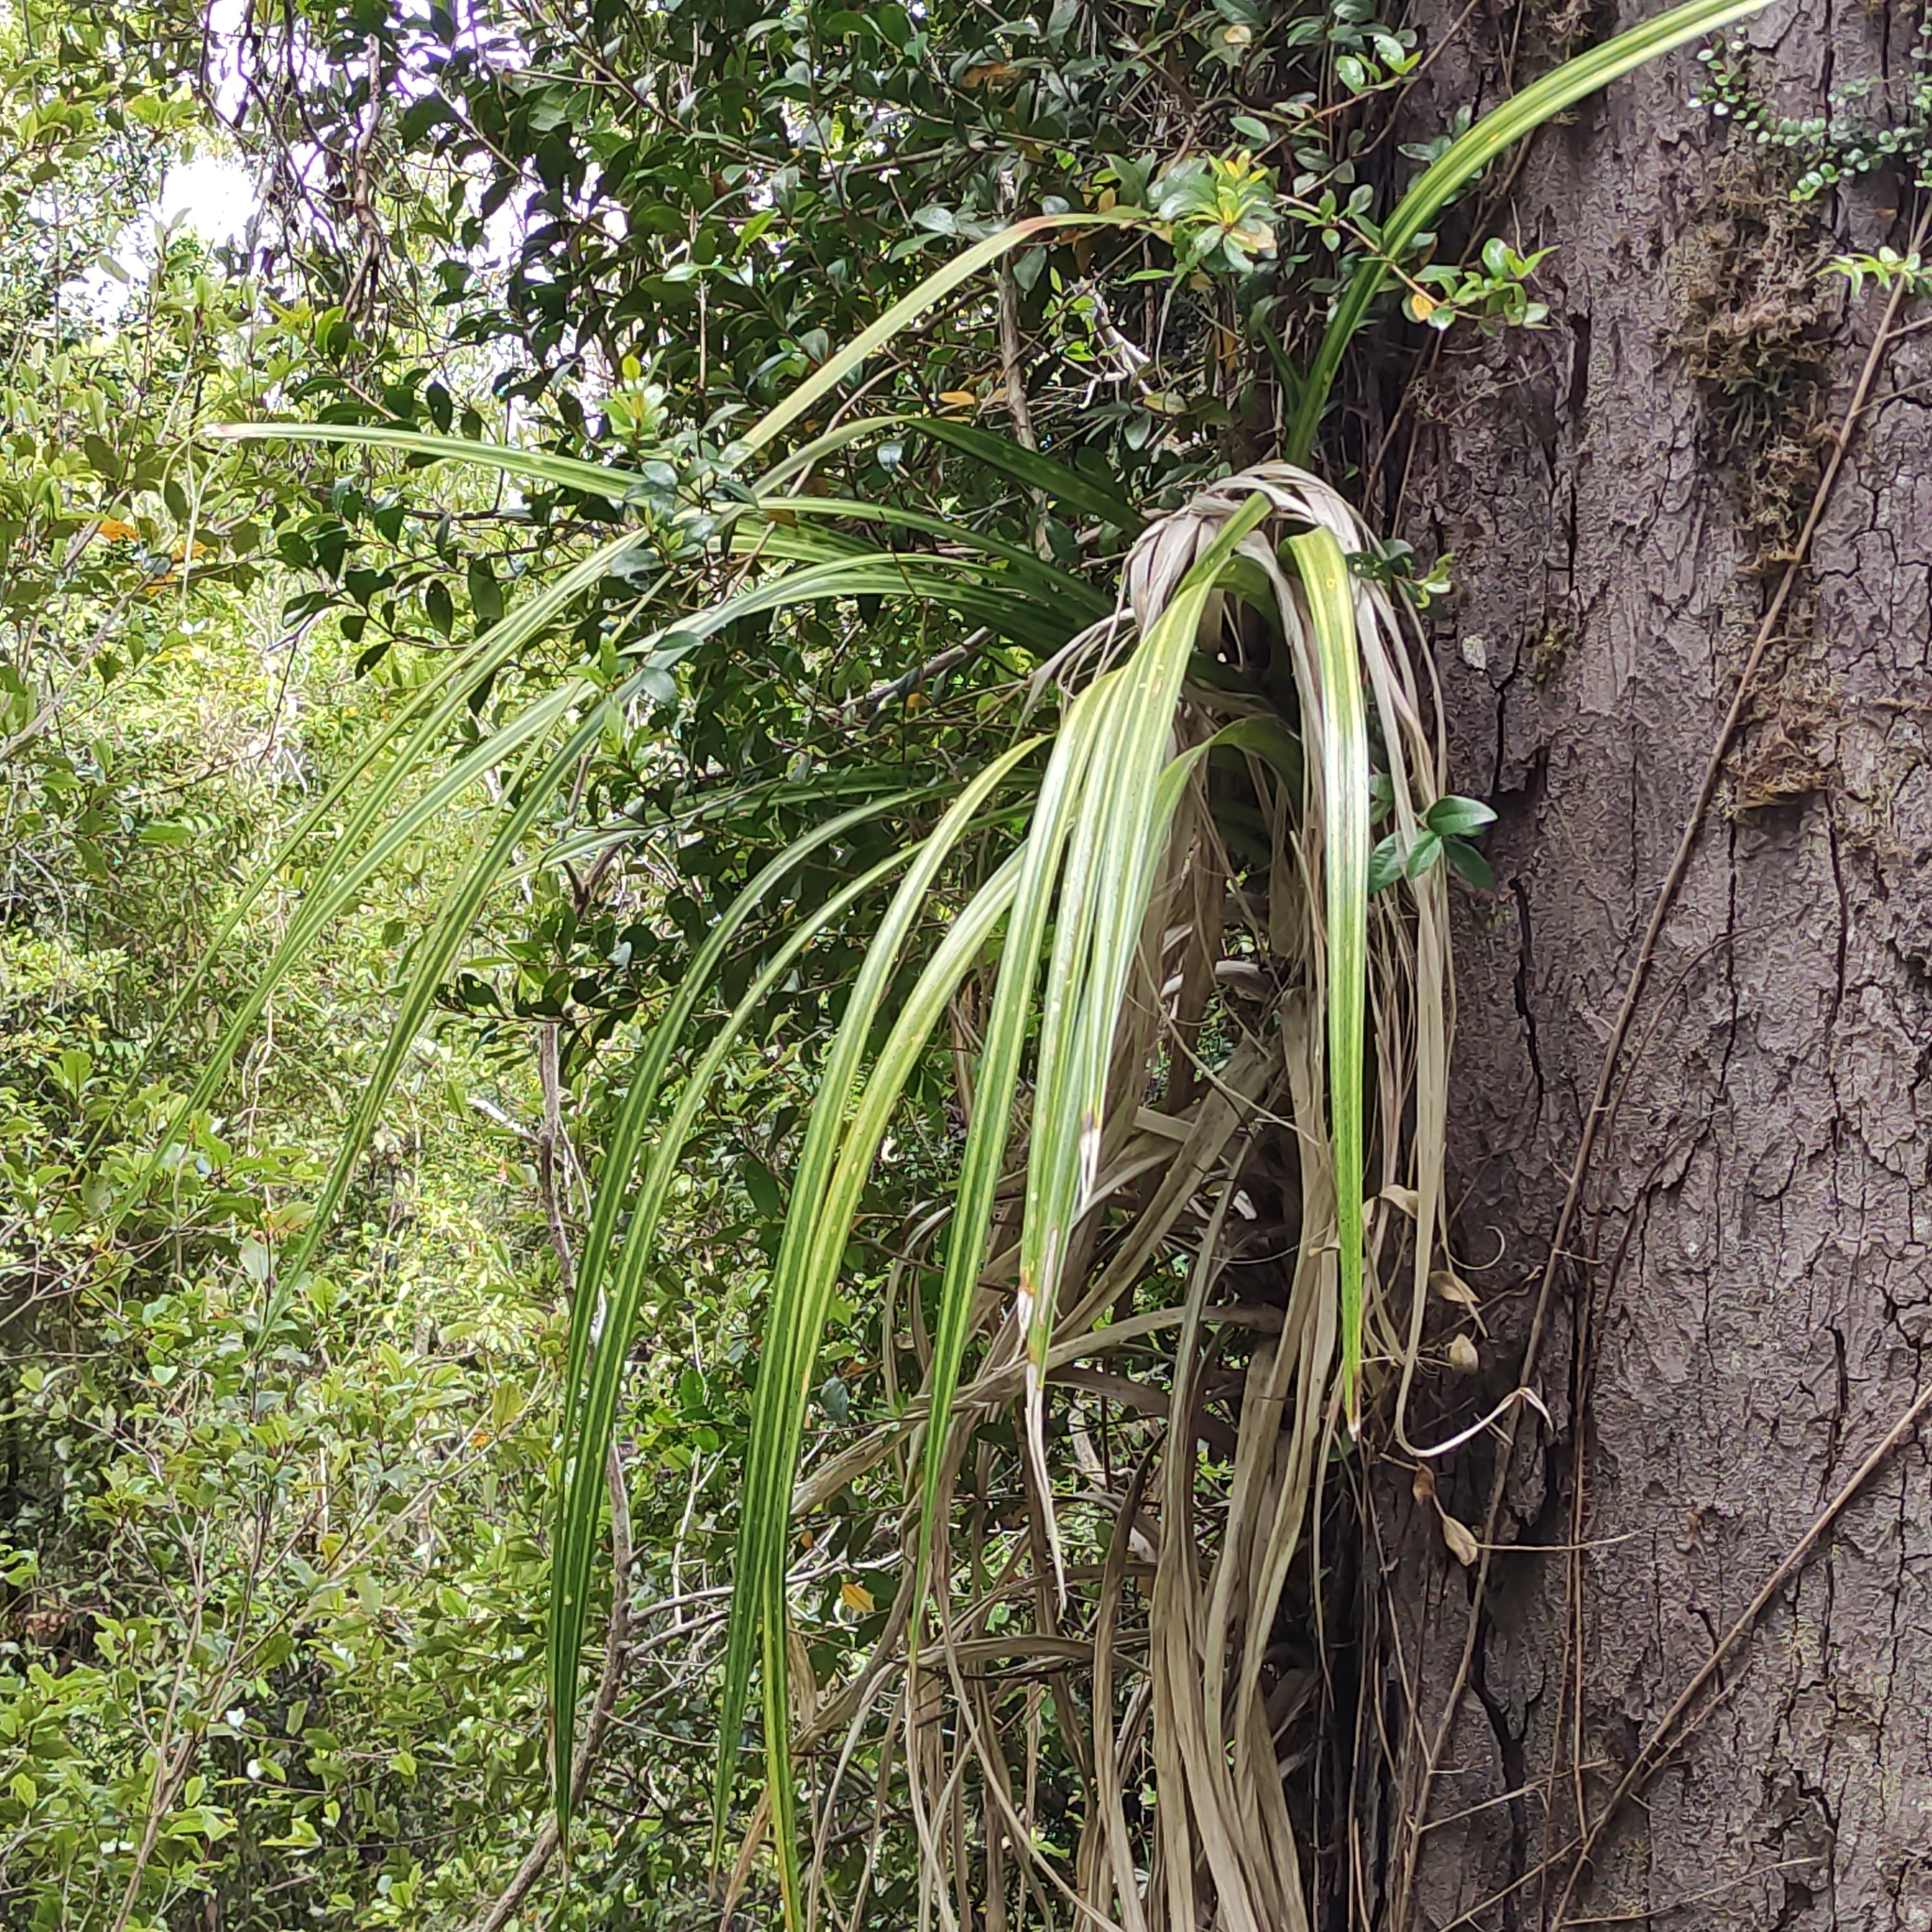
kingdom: Plantae
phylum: Tracheophyta
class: Liliopsida
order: Pandanales
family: Pandanaceae
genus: Freycinetia
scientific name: Freycinetia banksii
